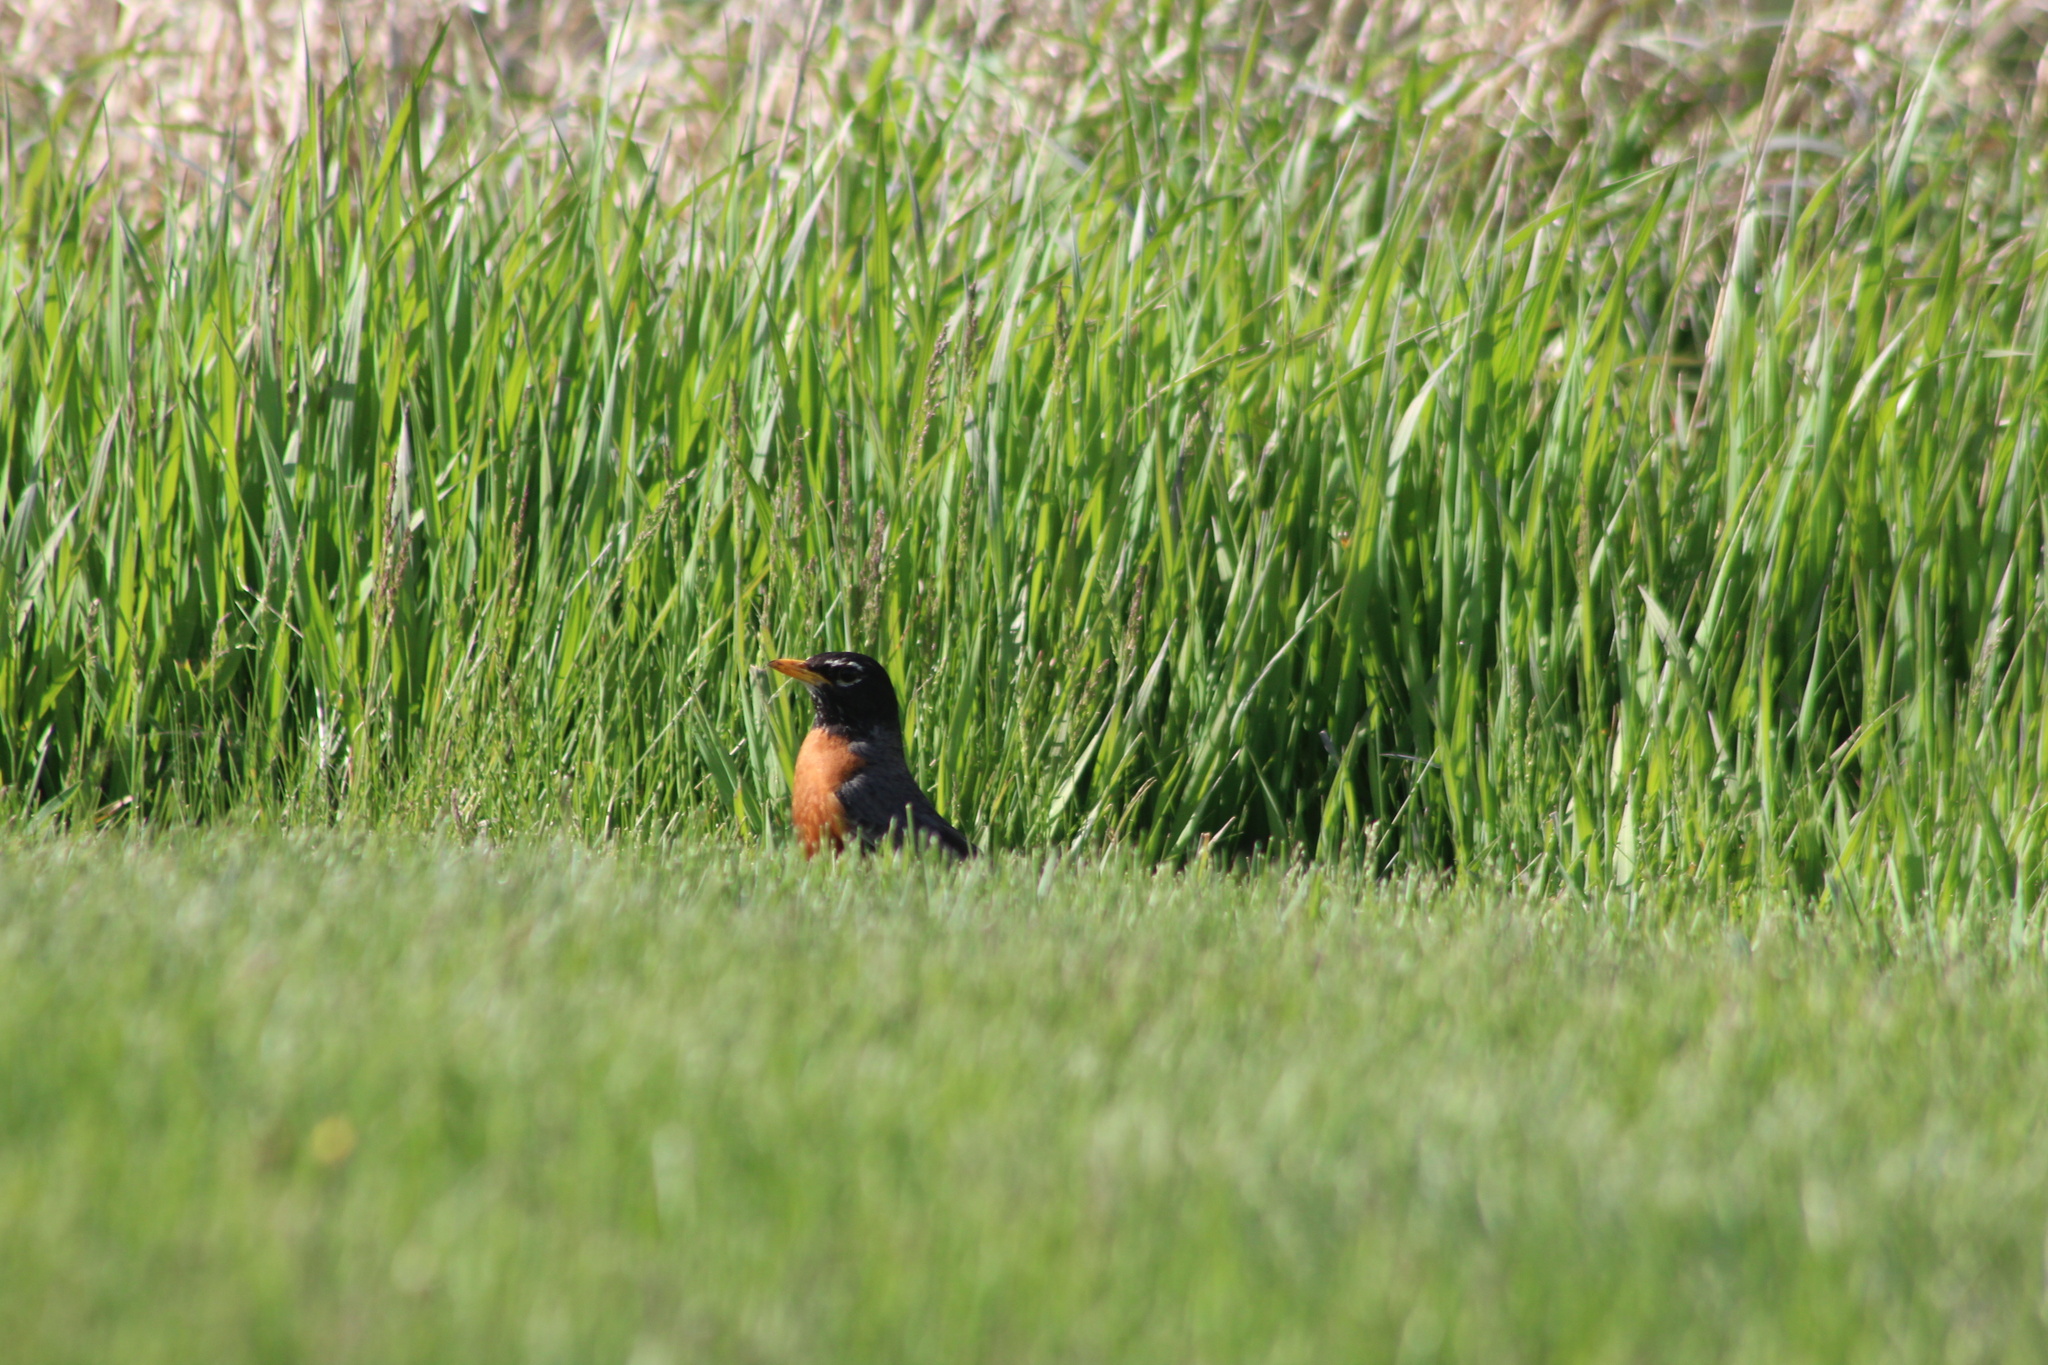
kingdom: Animalia
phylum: Chordata
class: Aves
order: Passeriformes
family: Turdidae
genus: Turdus
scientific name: Turdus migratorius
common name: American robin
